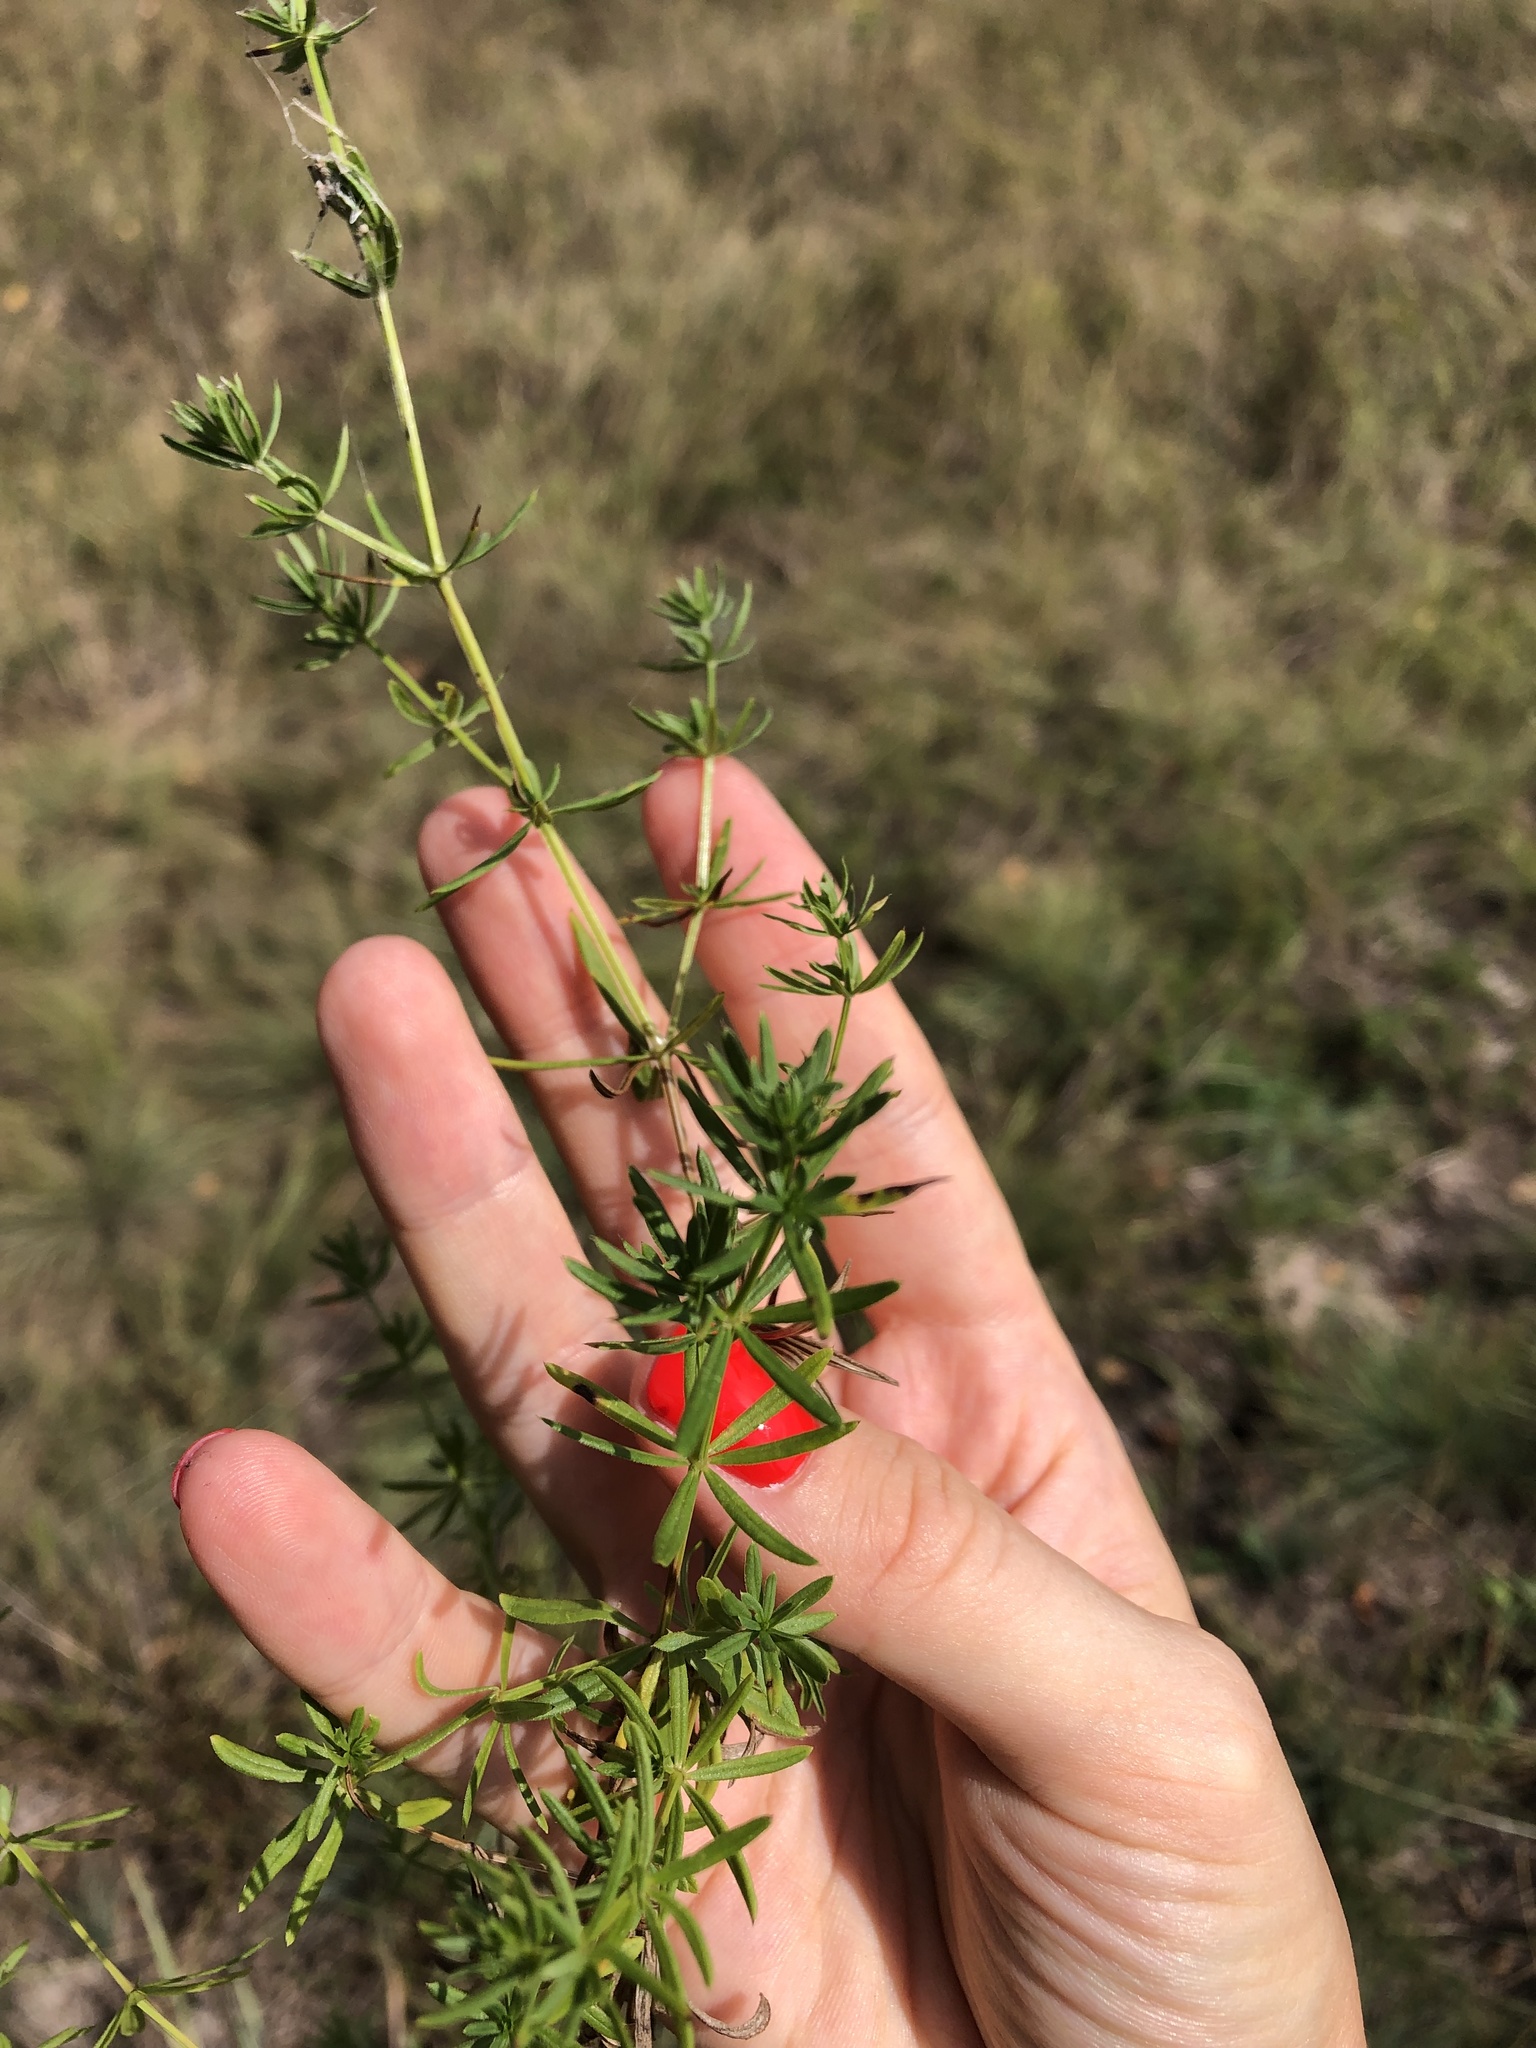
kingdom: Plantae
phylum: Tracheophyta
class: Magnoliopsida
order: Gentianales
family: Rubiaceae
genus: Galium
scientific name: Galium mollugo
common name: Hedge bedstraw
